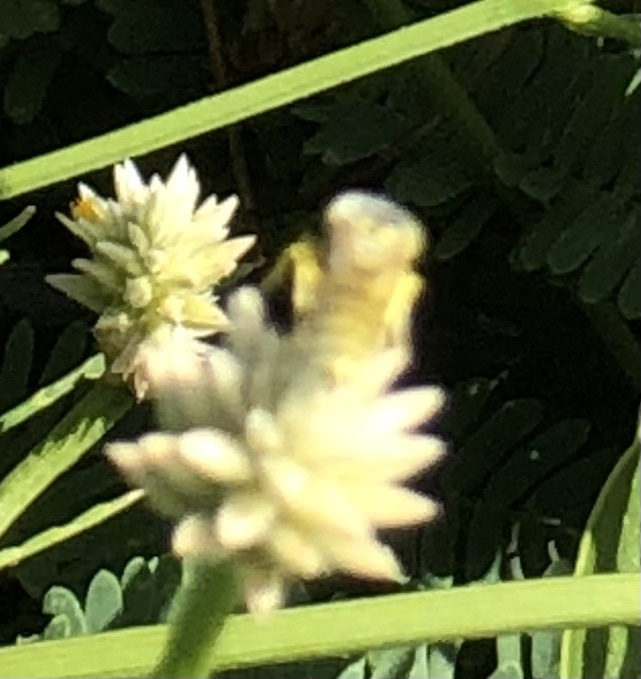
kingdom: Animalia
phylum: Arthropoda
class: Insecta
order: Hymenoptera
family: Crabronidae
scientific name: Crabronidae
